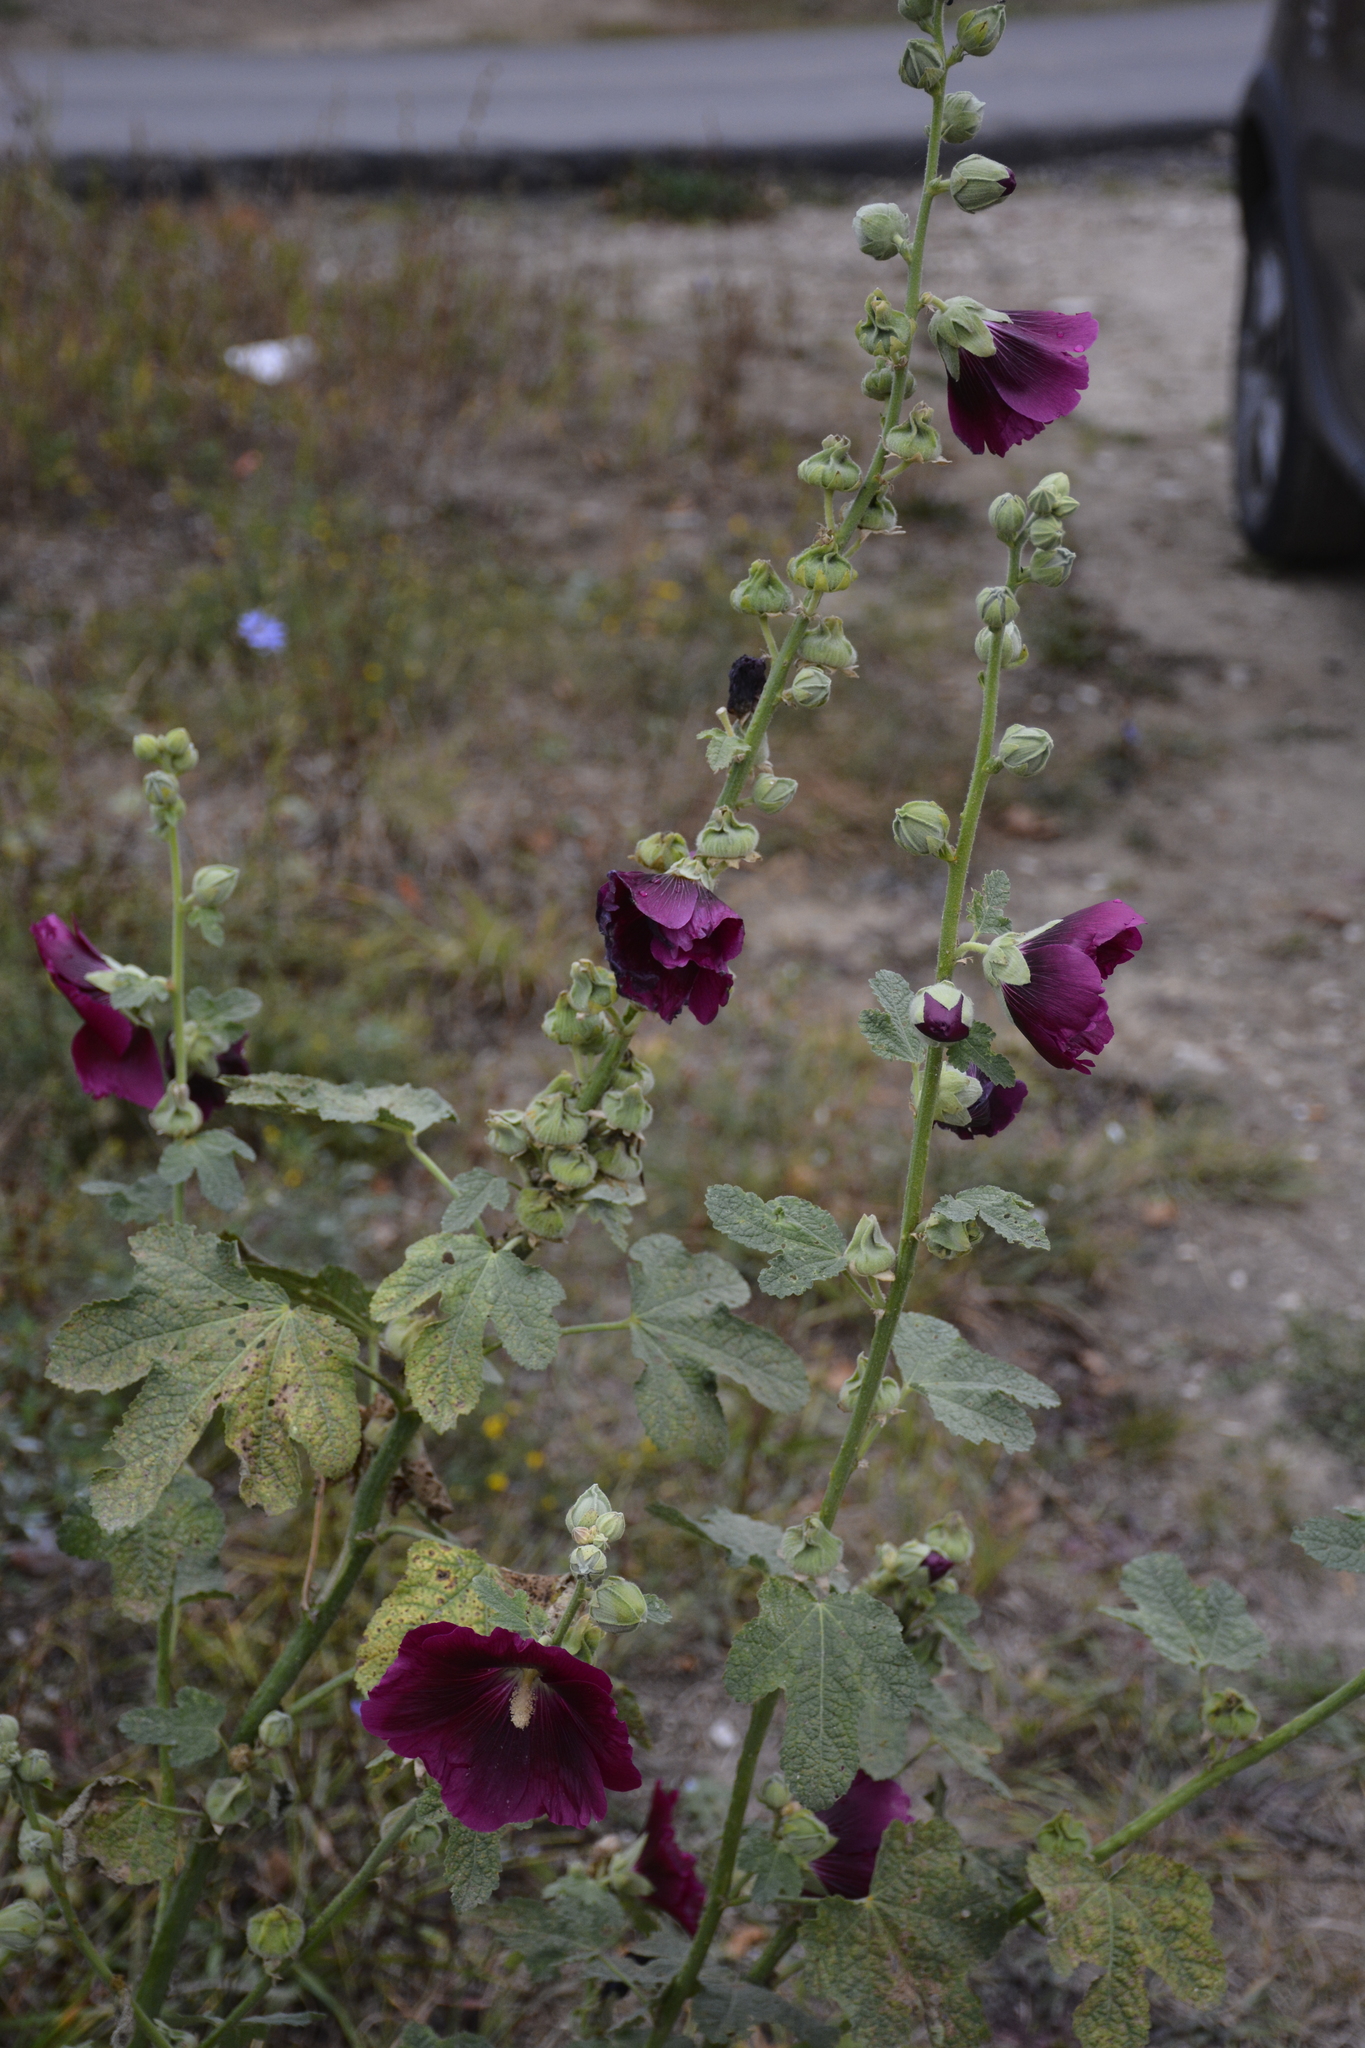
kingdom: Plantae
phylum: Tracheophyta
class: Magnoliopsida
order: Malvales
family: Malvaceae
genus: Alcea
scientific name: Alcea rosea
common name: Hollyhock
